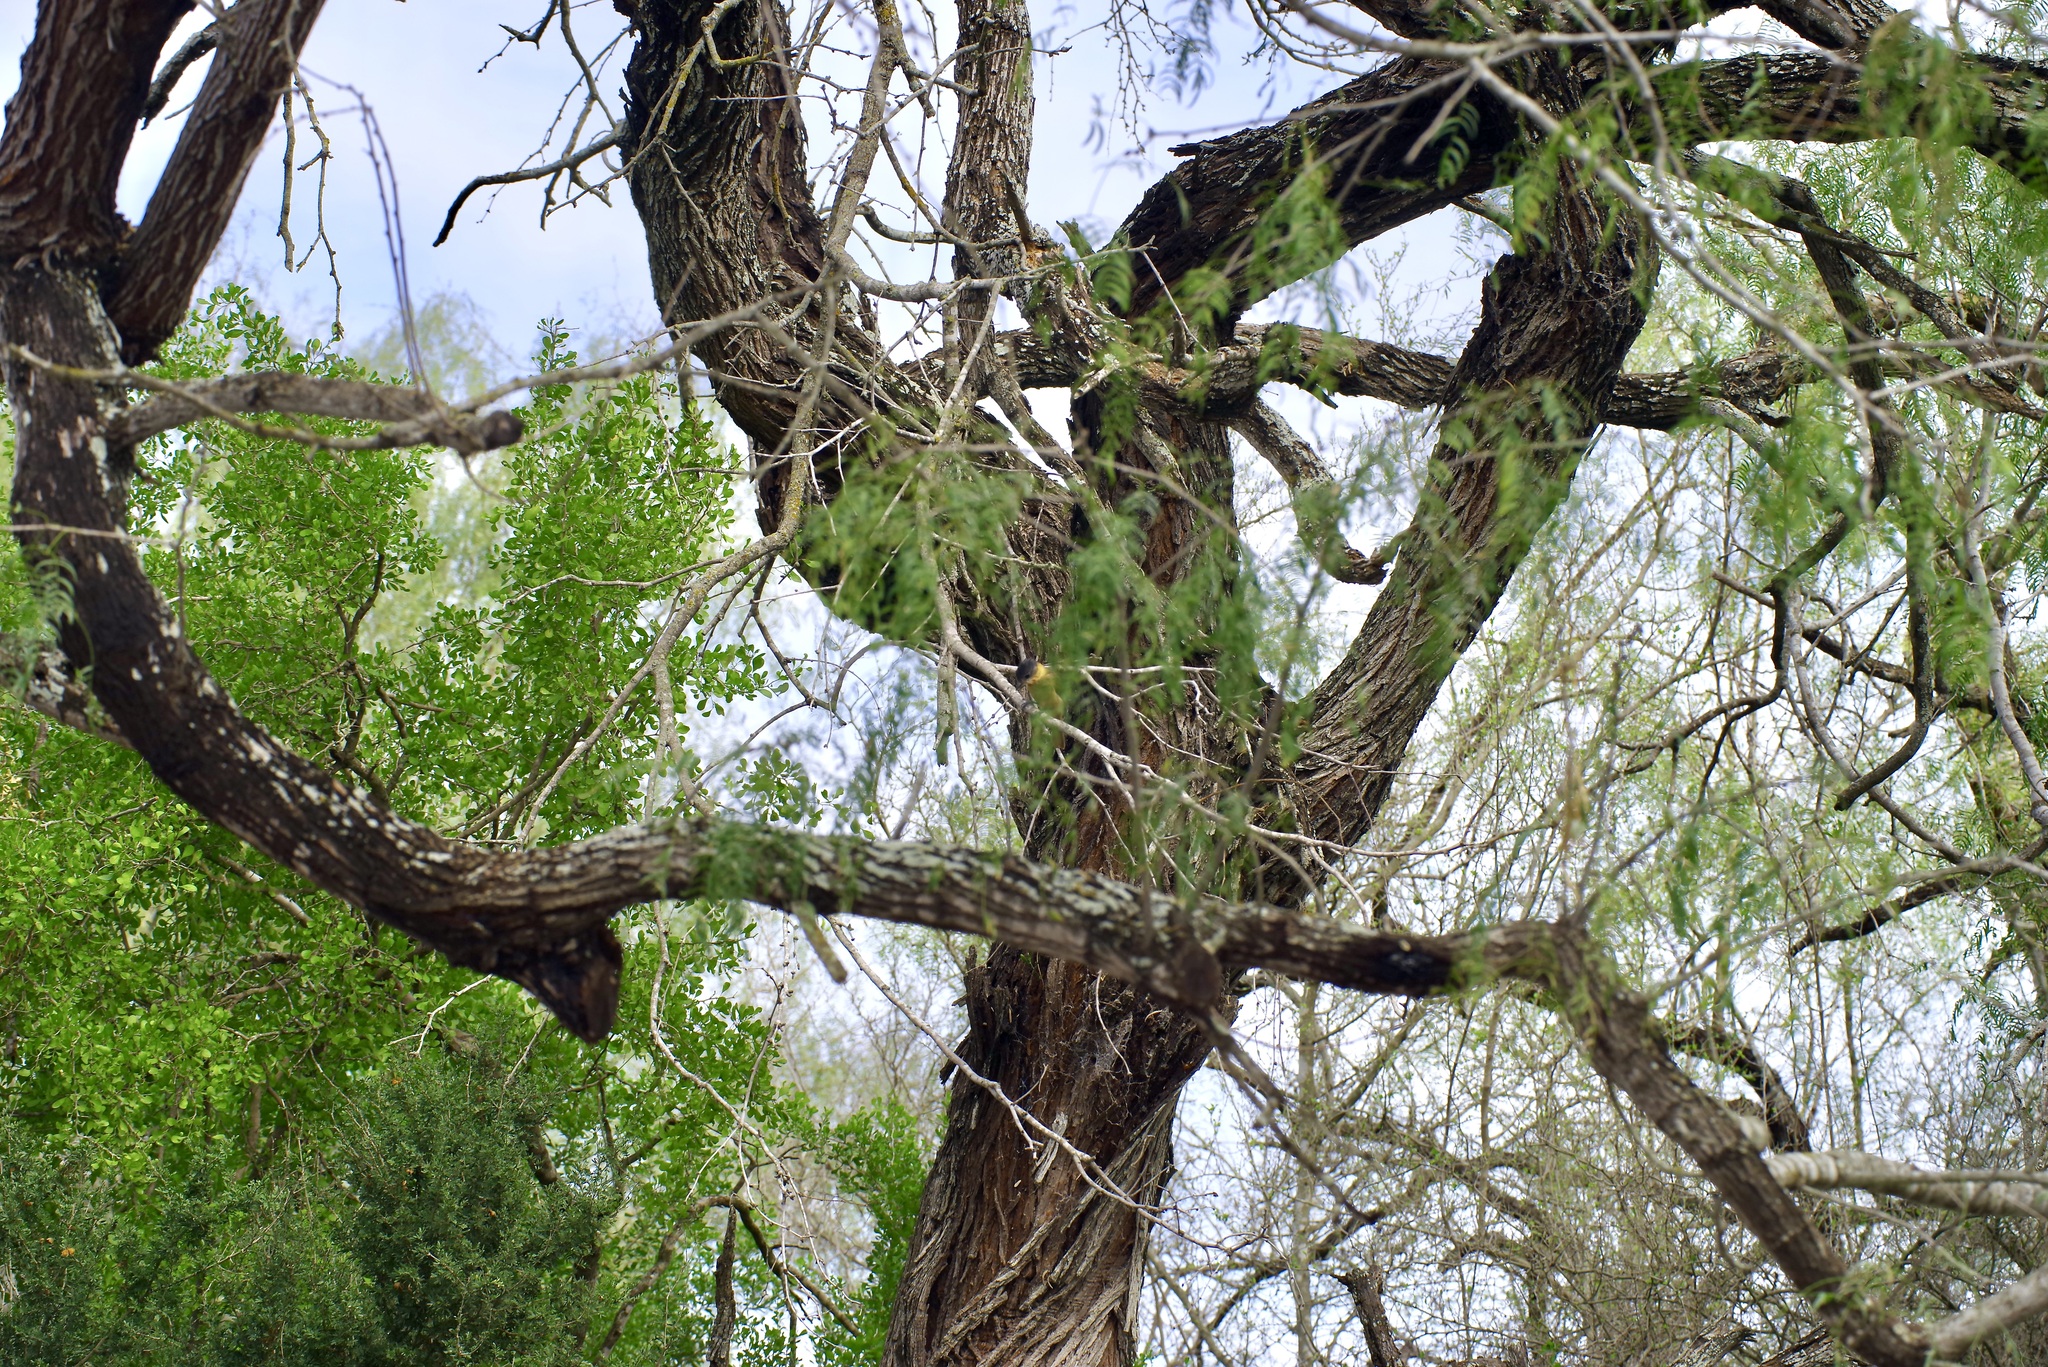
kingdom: Animalia
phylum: Chordata
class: Aves
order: Passeriformes
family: Cotingidae
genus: Pachyramphus
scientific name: Pachyramphus aglaiae
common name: Rose-throated becard
